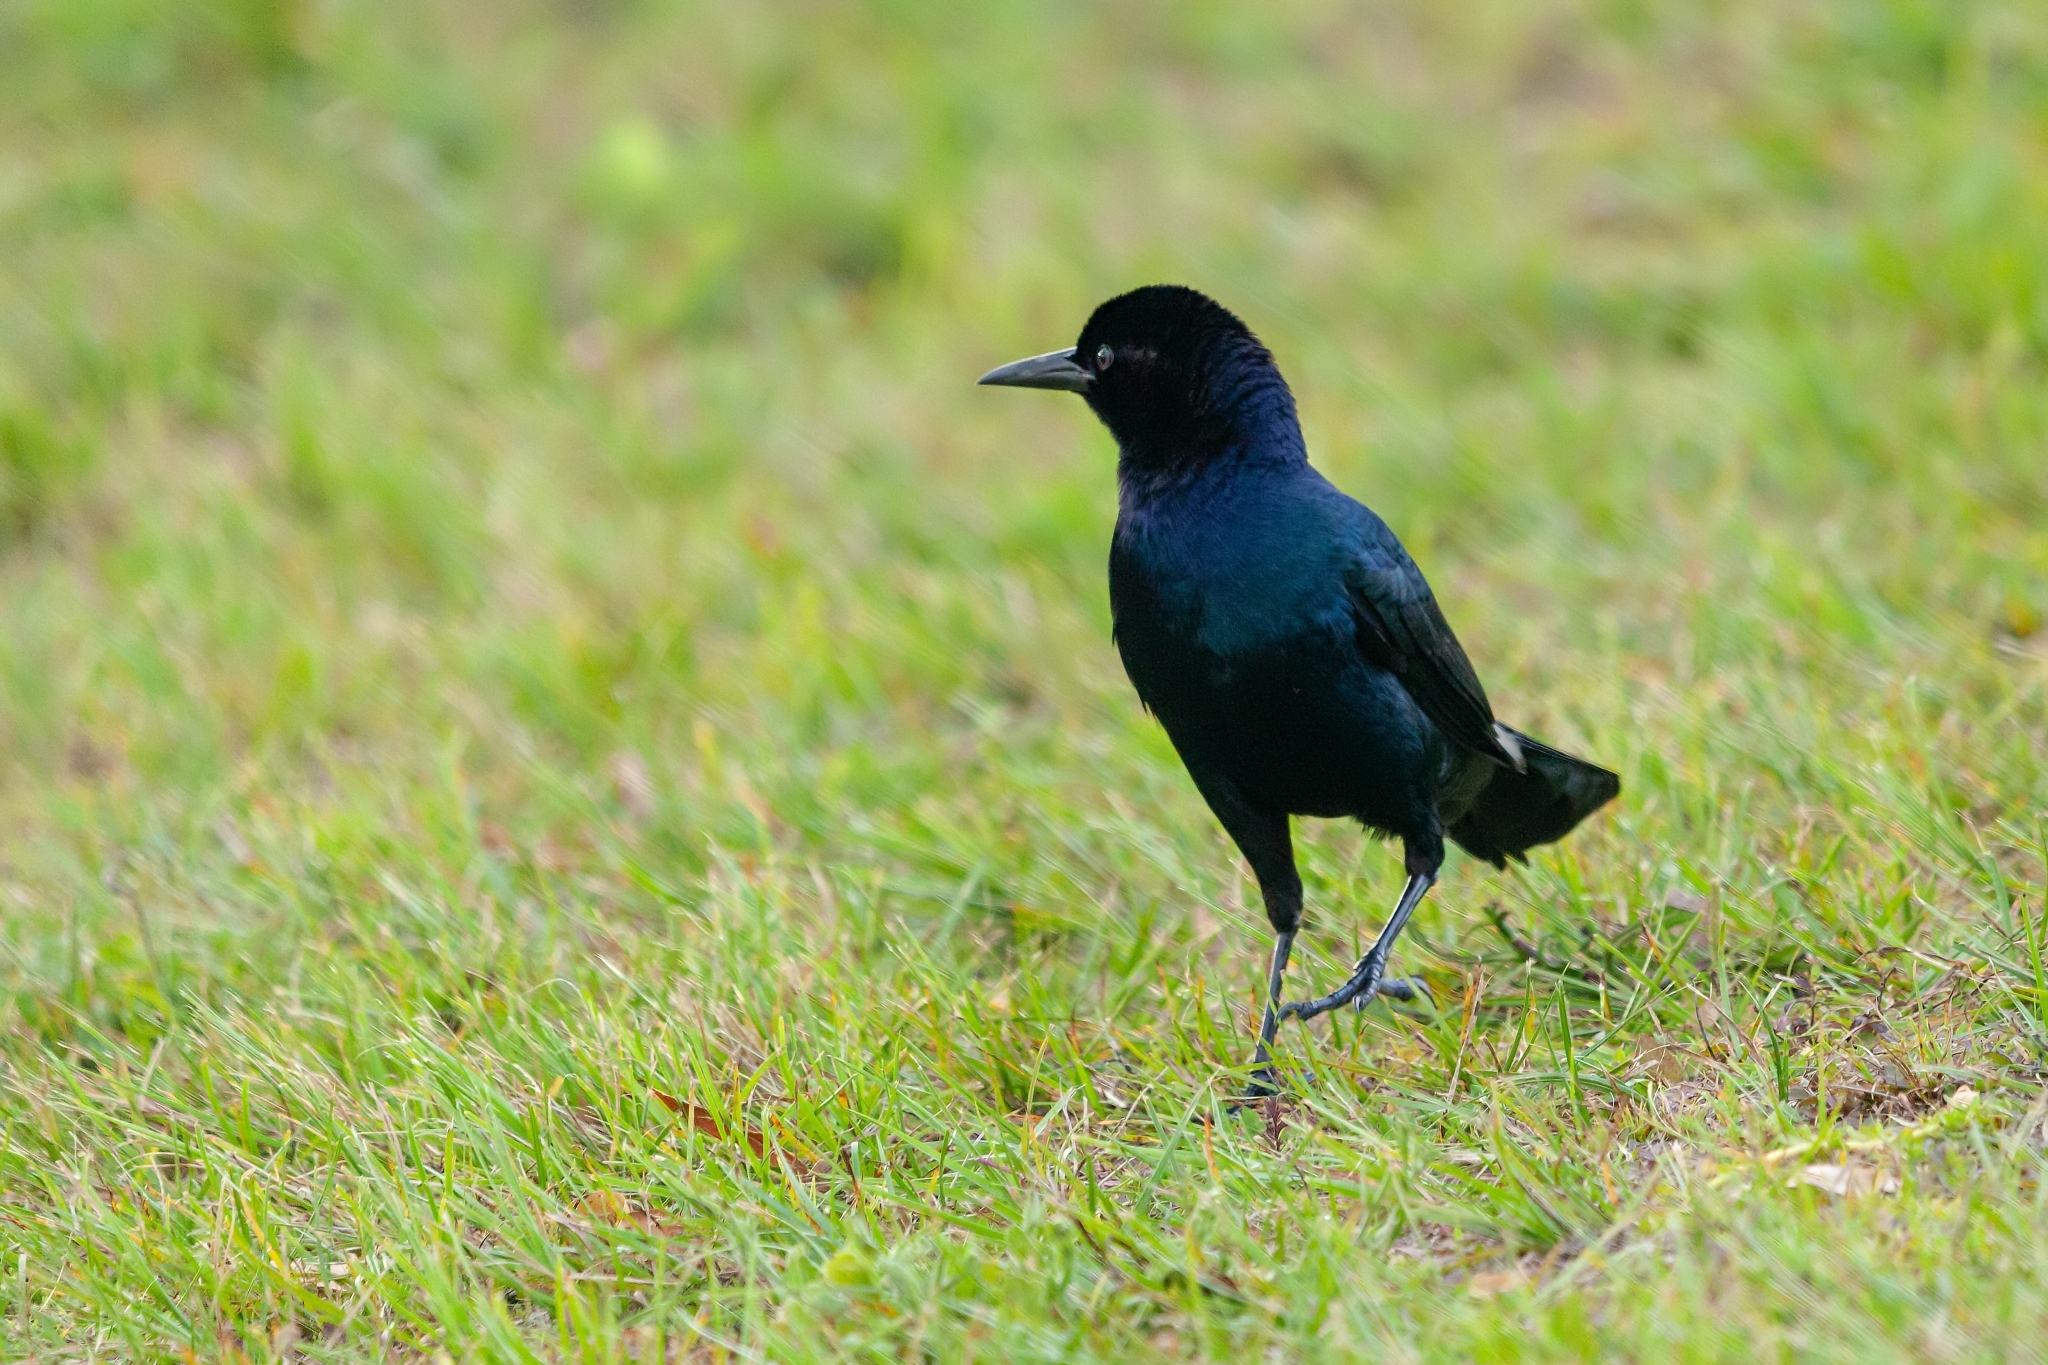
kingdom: Animalia
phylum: Chordata
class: Aves
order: Passeriformes
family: Icteridae
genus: Quiscalus
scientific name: Quiscalus major
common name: Boat-tailed grackle
